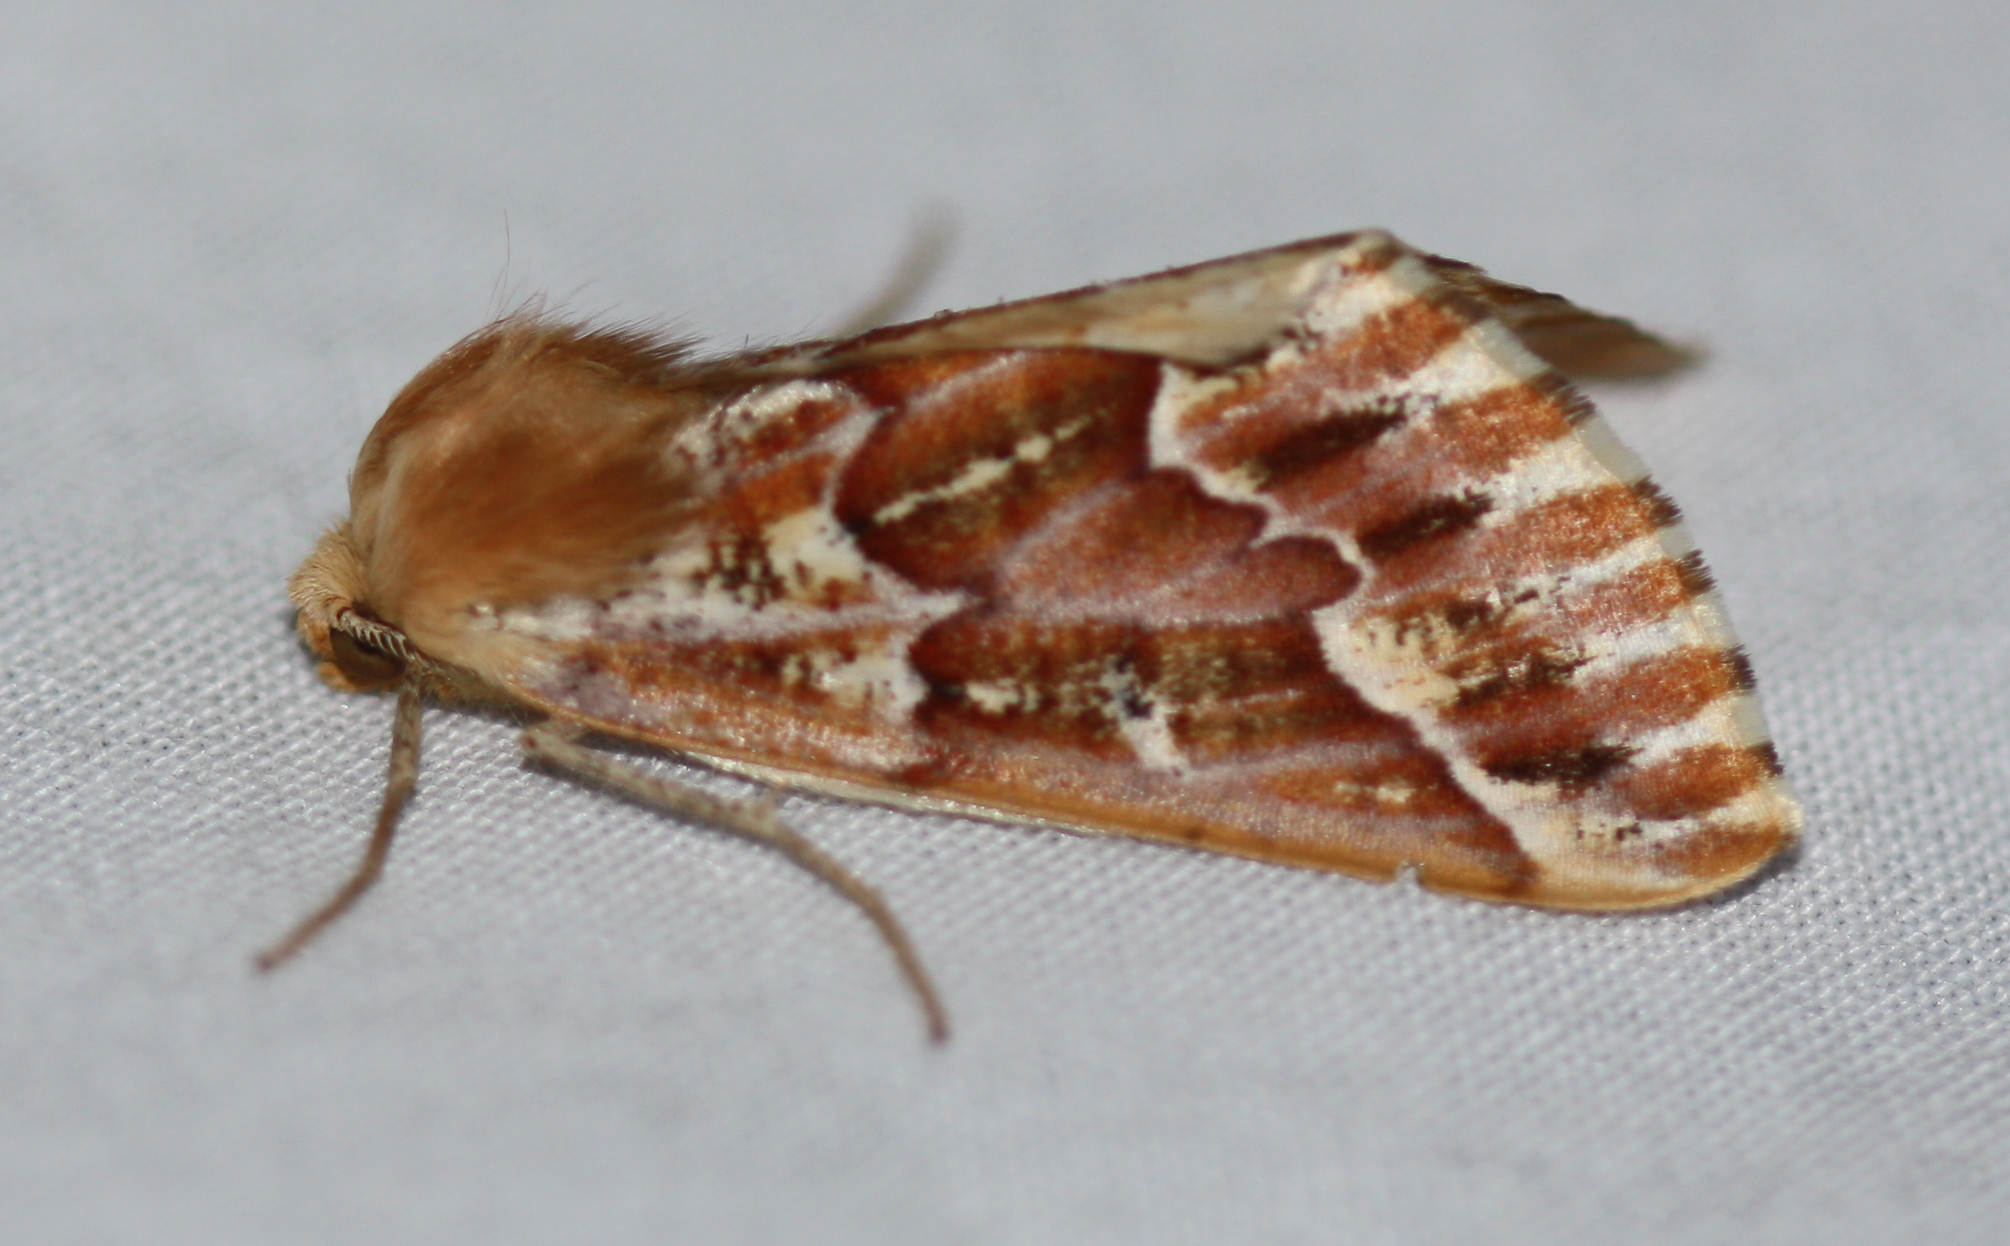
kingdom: Animalia
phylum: Arthropoda
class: Insecta
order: Lepidoptera
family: Geometridae
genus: Caripeta
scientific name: Caripeta aequaliaria
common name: Red girdle moth
